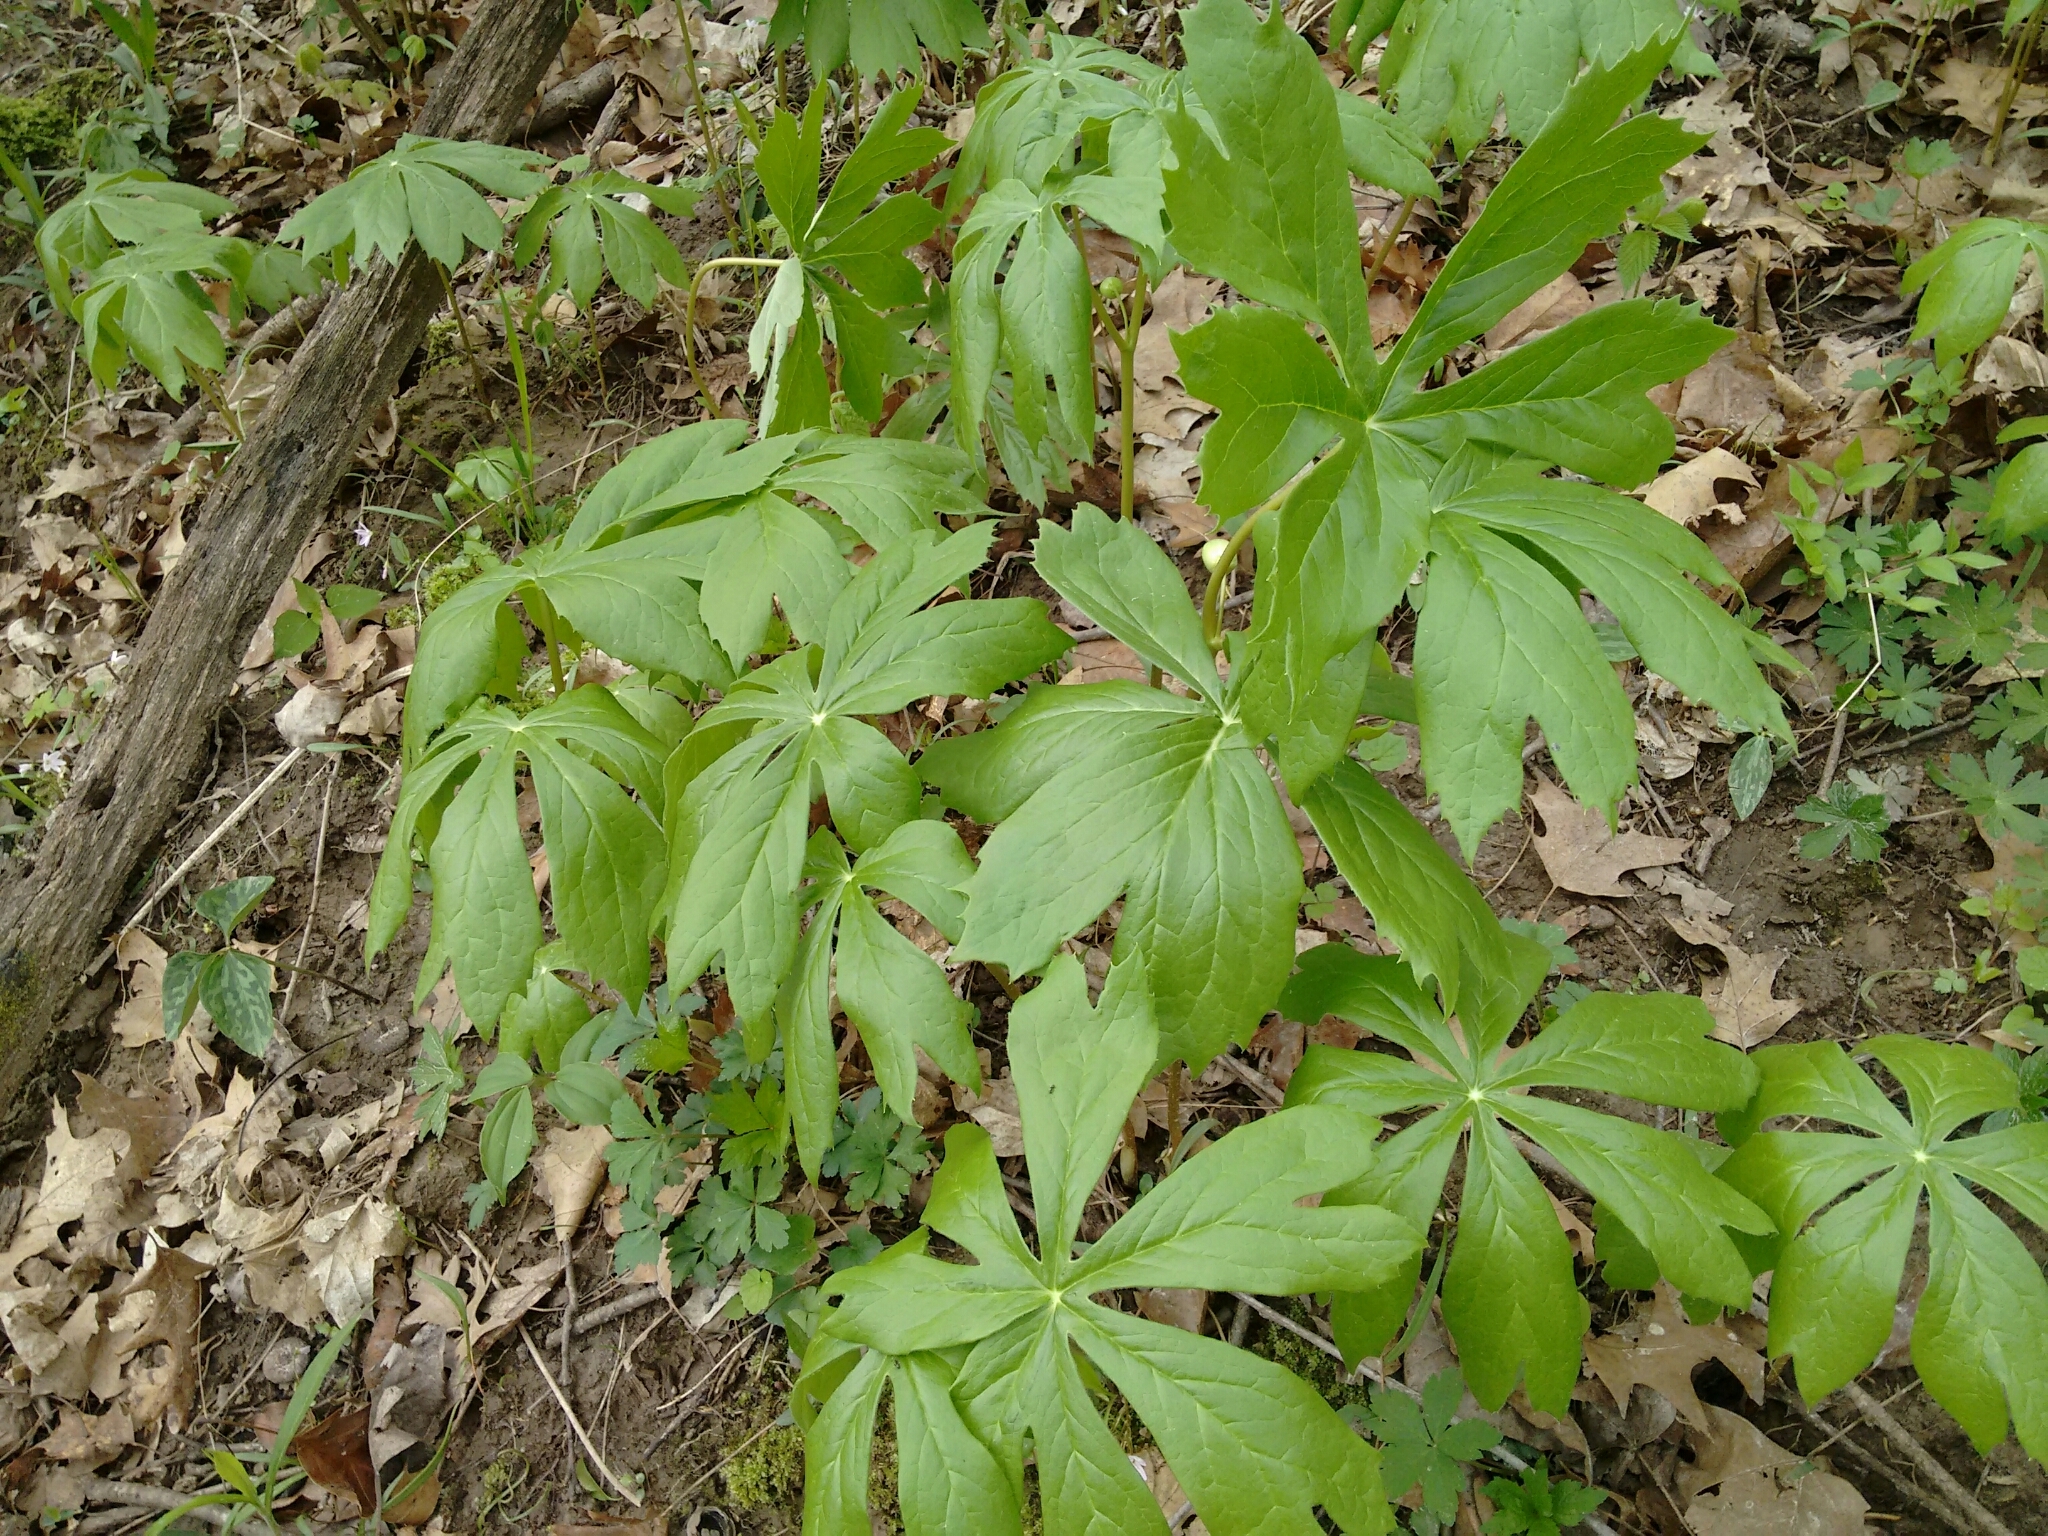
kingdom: Plantae
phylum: Tracheophyta
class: Magnoliopsida
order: Ranunculales
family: Berberidaceae
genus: Podophyllum
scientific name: Podophyllum peltatum
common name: Wild mandrake
